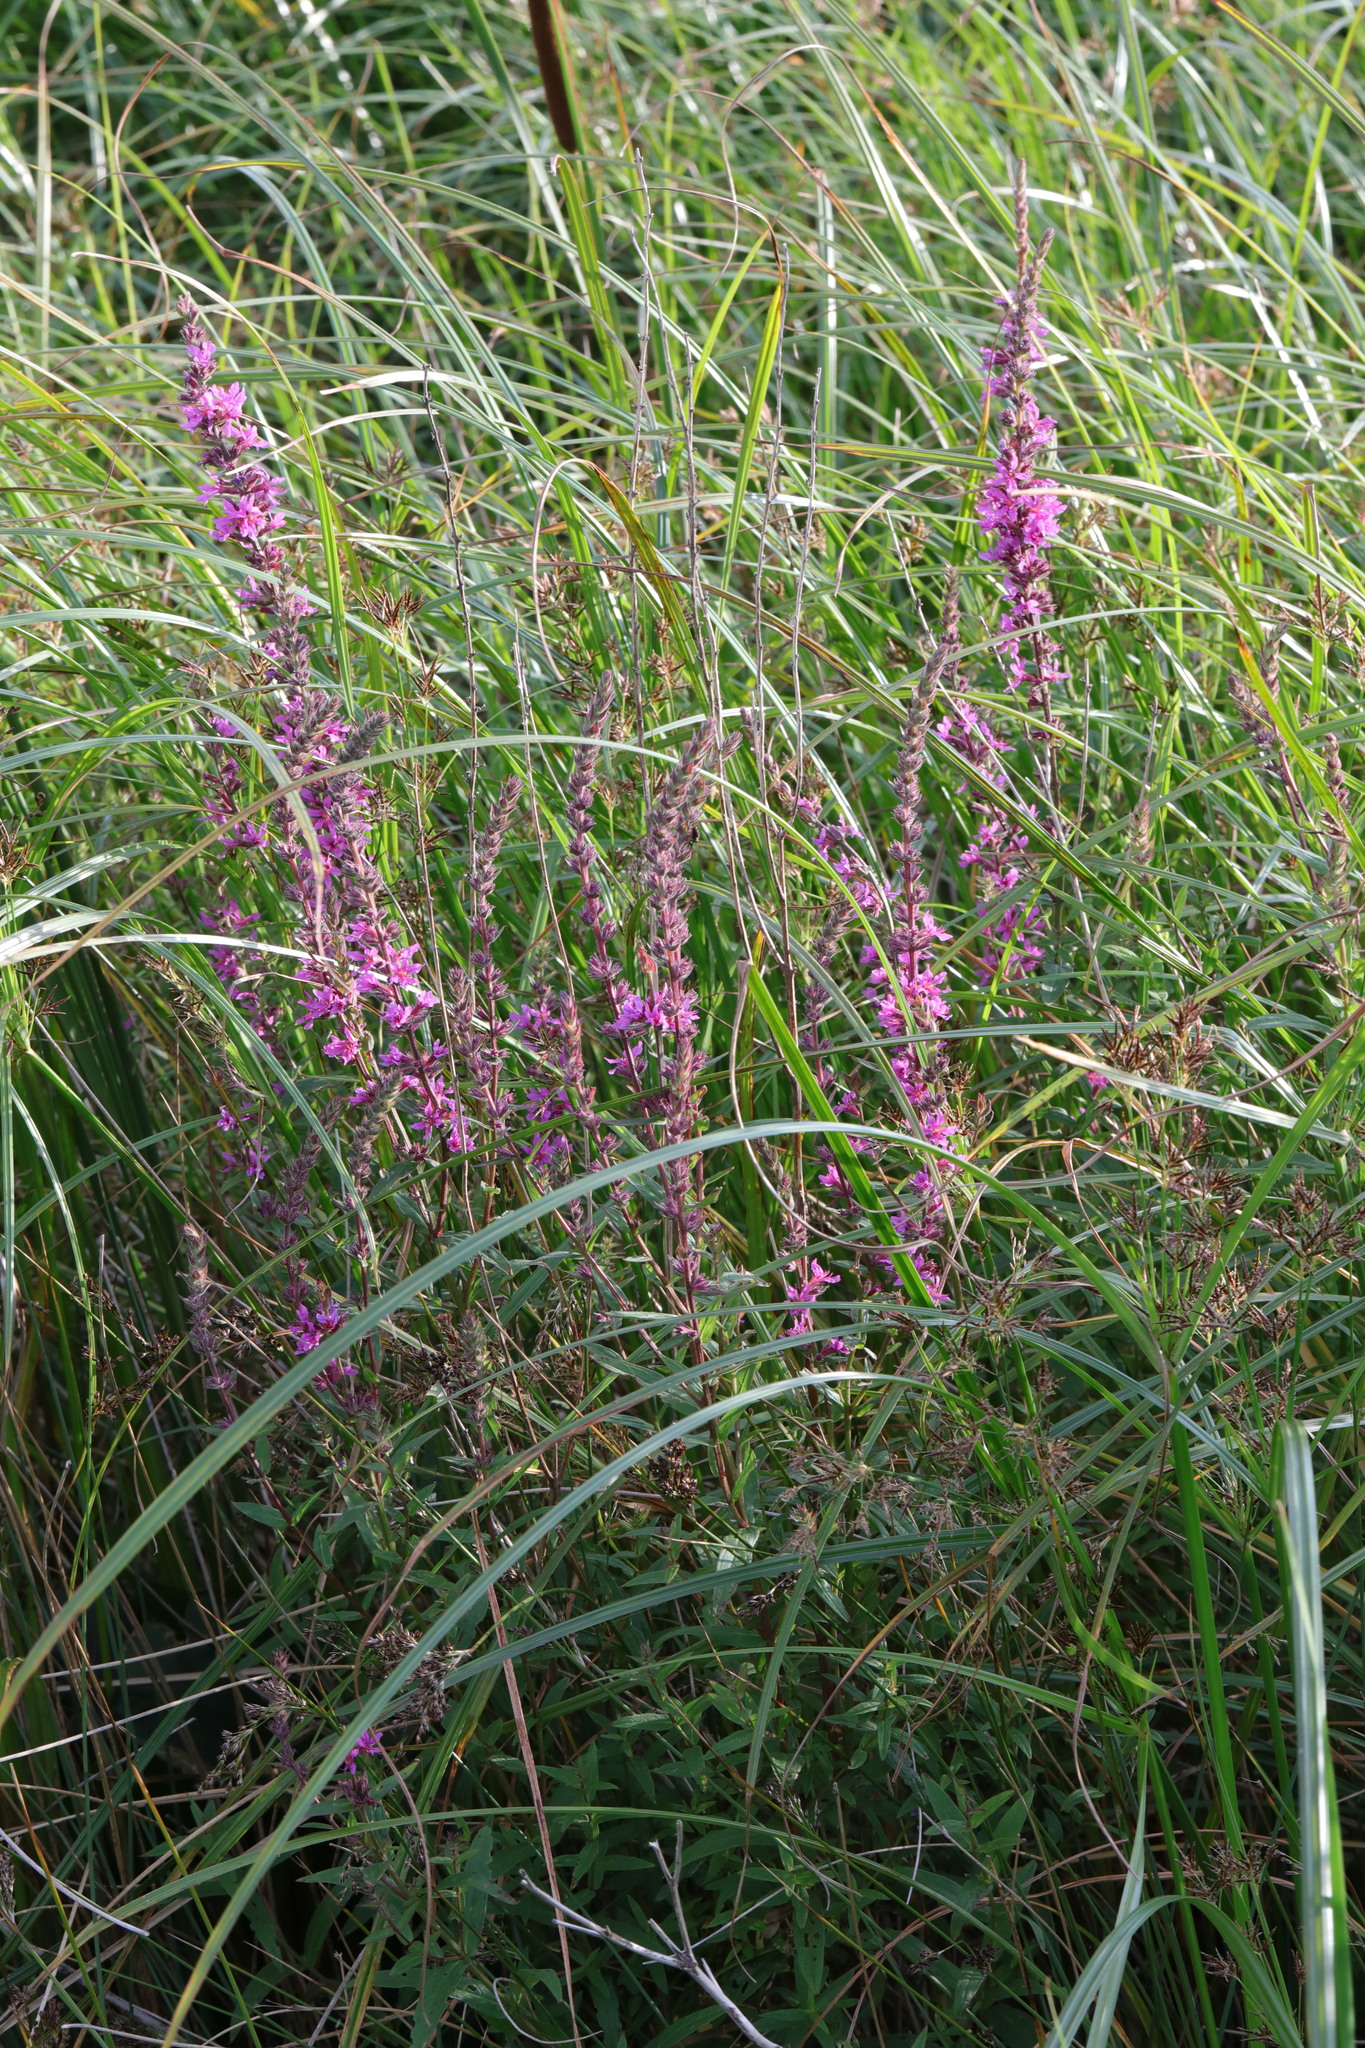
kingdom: Plantae
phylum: Tracheophyta
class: Magnoliopsida
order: Myrtales
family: Lythraceae
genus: Lythrum
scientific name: Lythrum salicaria
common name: Purple loosestrife
